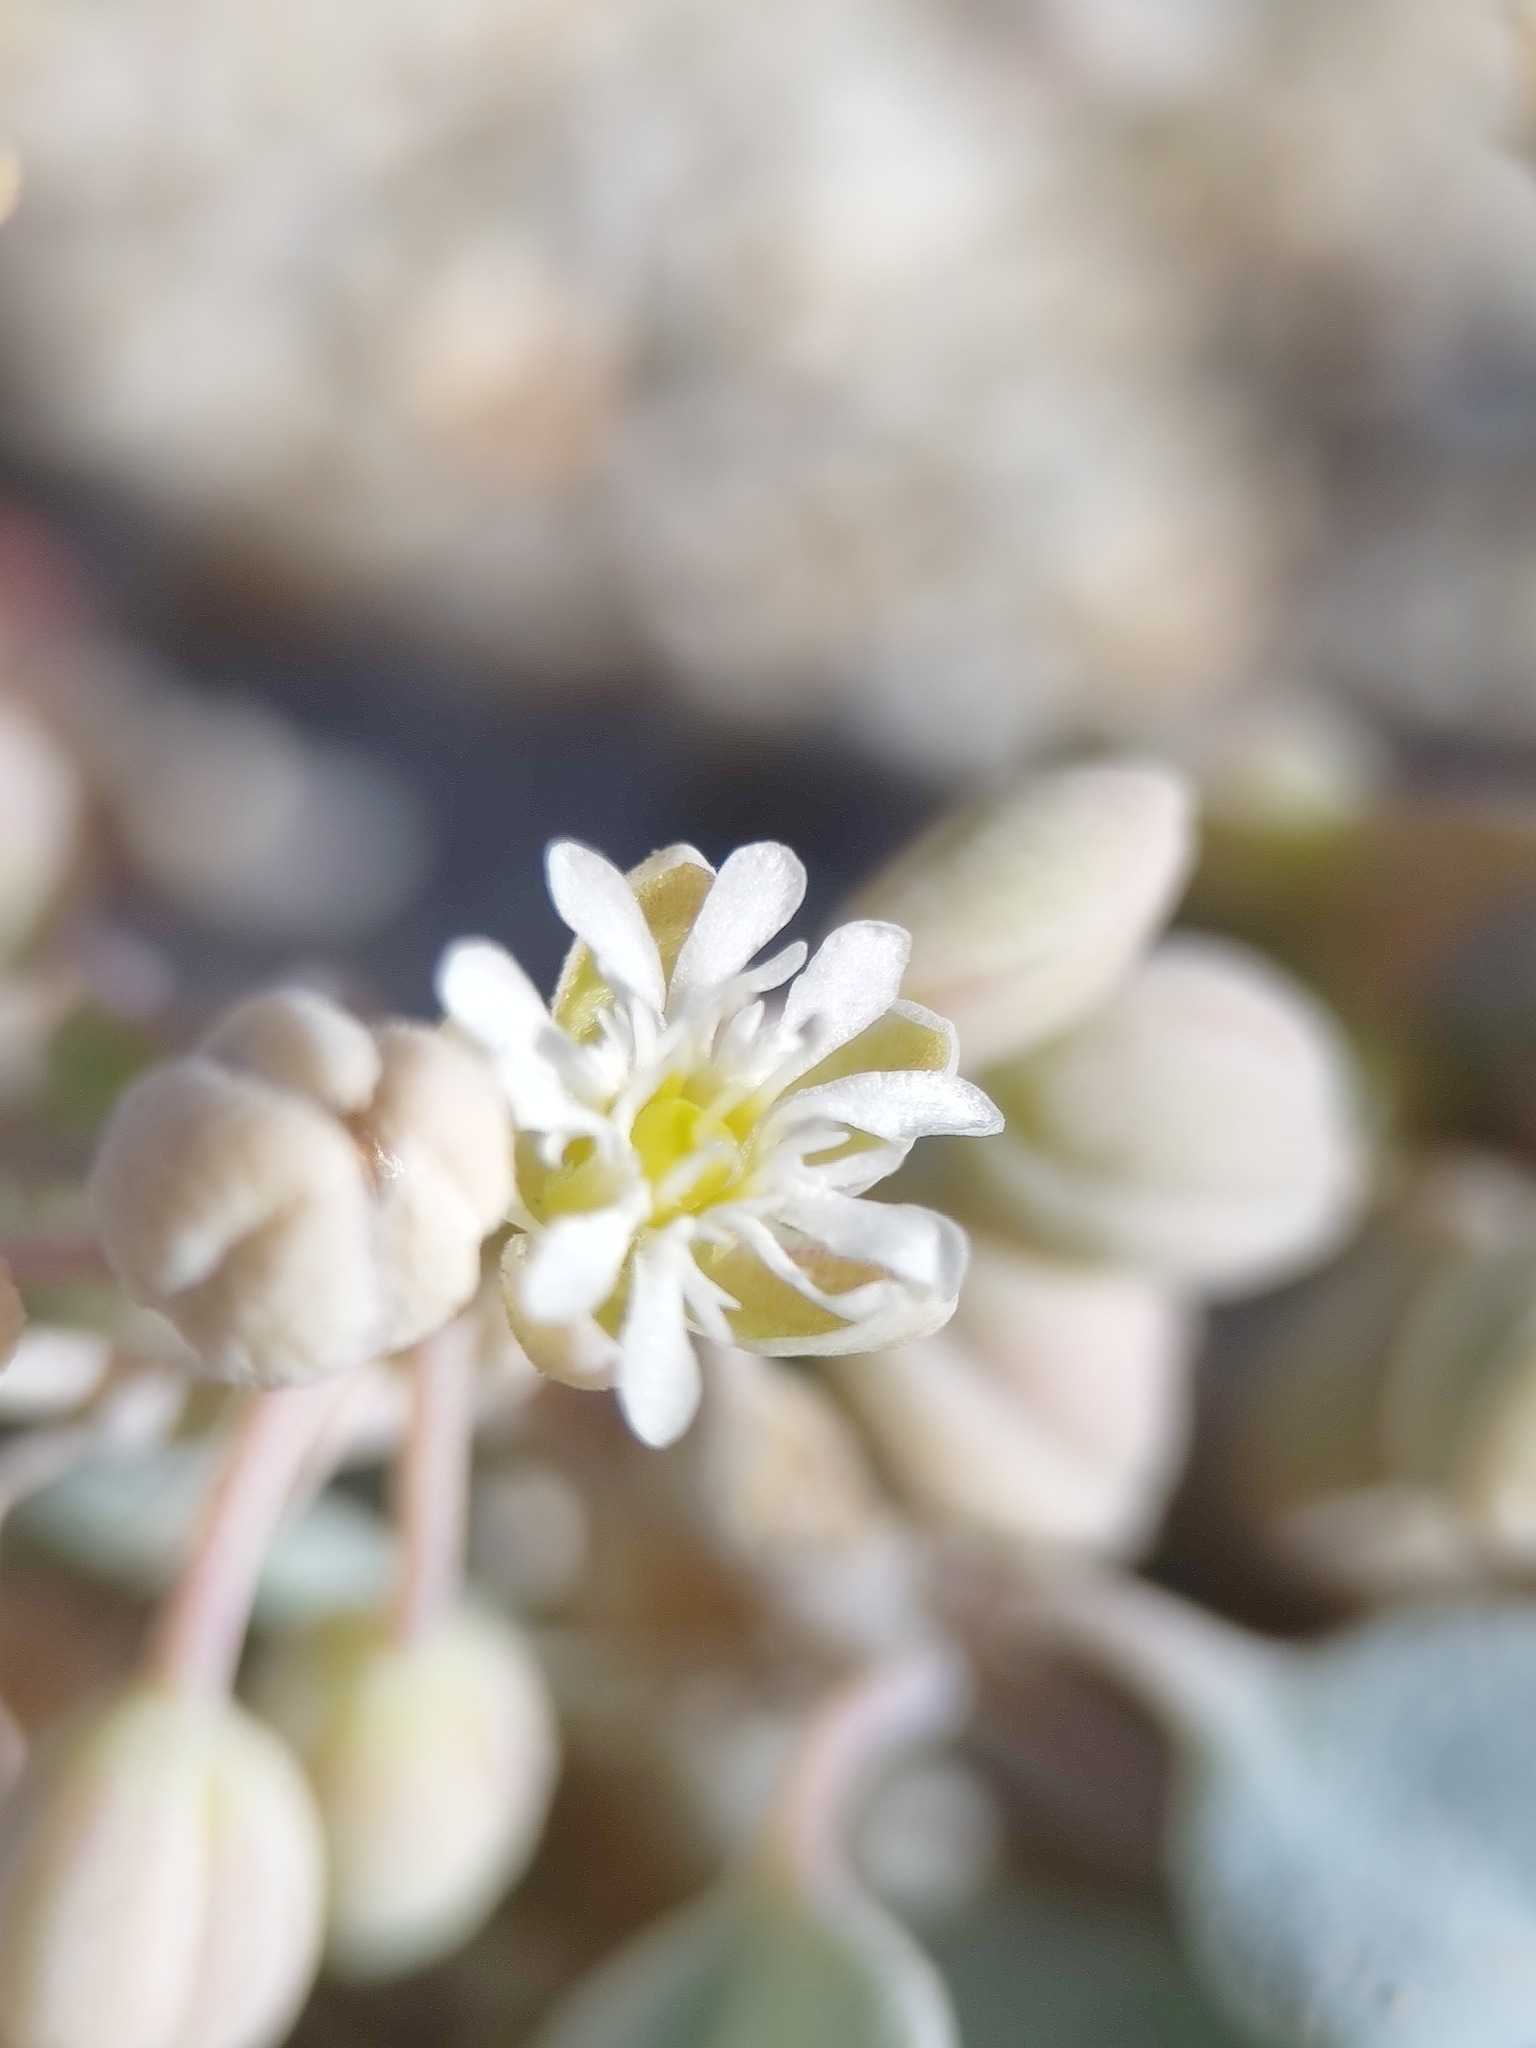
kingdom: Plantae
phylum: Tracheophyta
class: Magnoliopsida
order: Caryophyllales
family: Caryophyllaceae
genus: Drymaria
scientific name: Drymaria holosteoides
